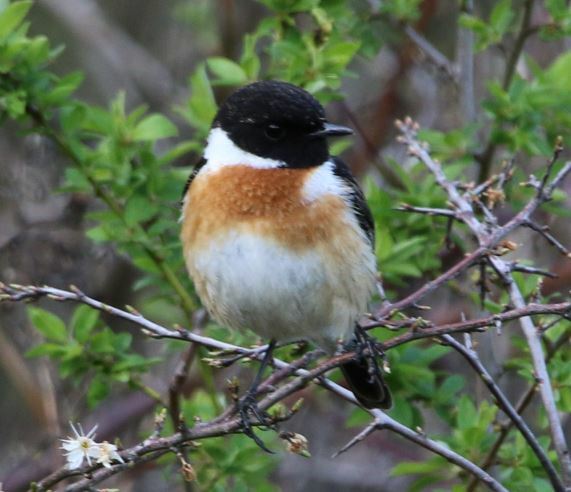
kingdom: Animalia
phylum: Chordata
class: Aves
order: Passeriformes
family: Muscicapidae
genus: Saxicola
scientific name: Saxicola rubicola
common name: European stonechat
